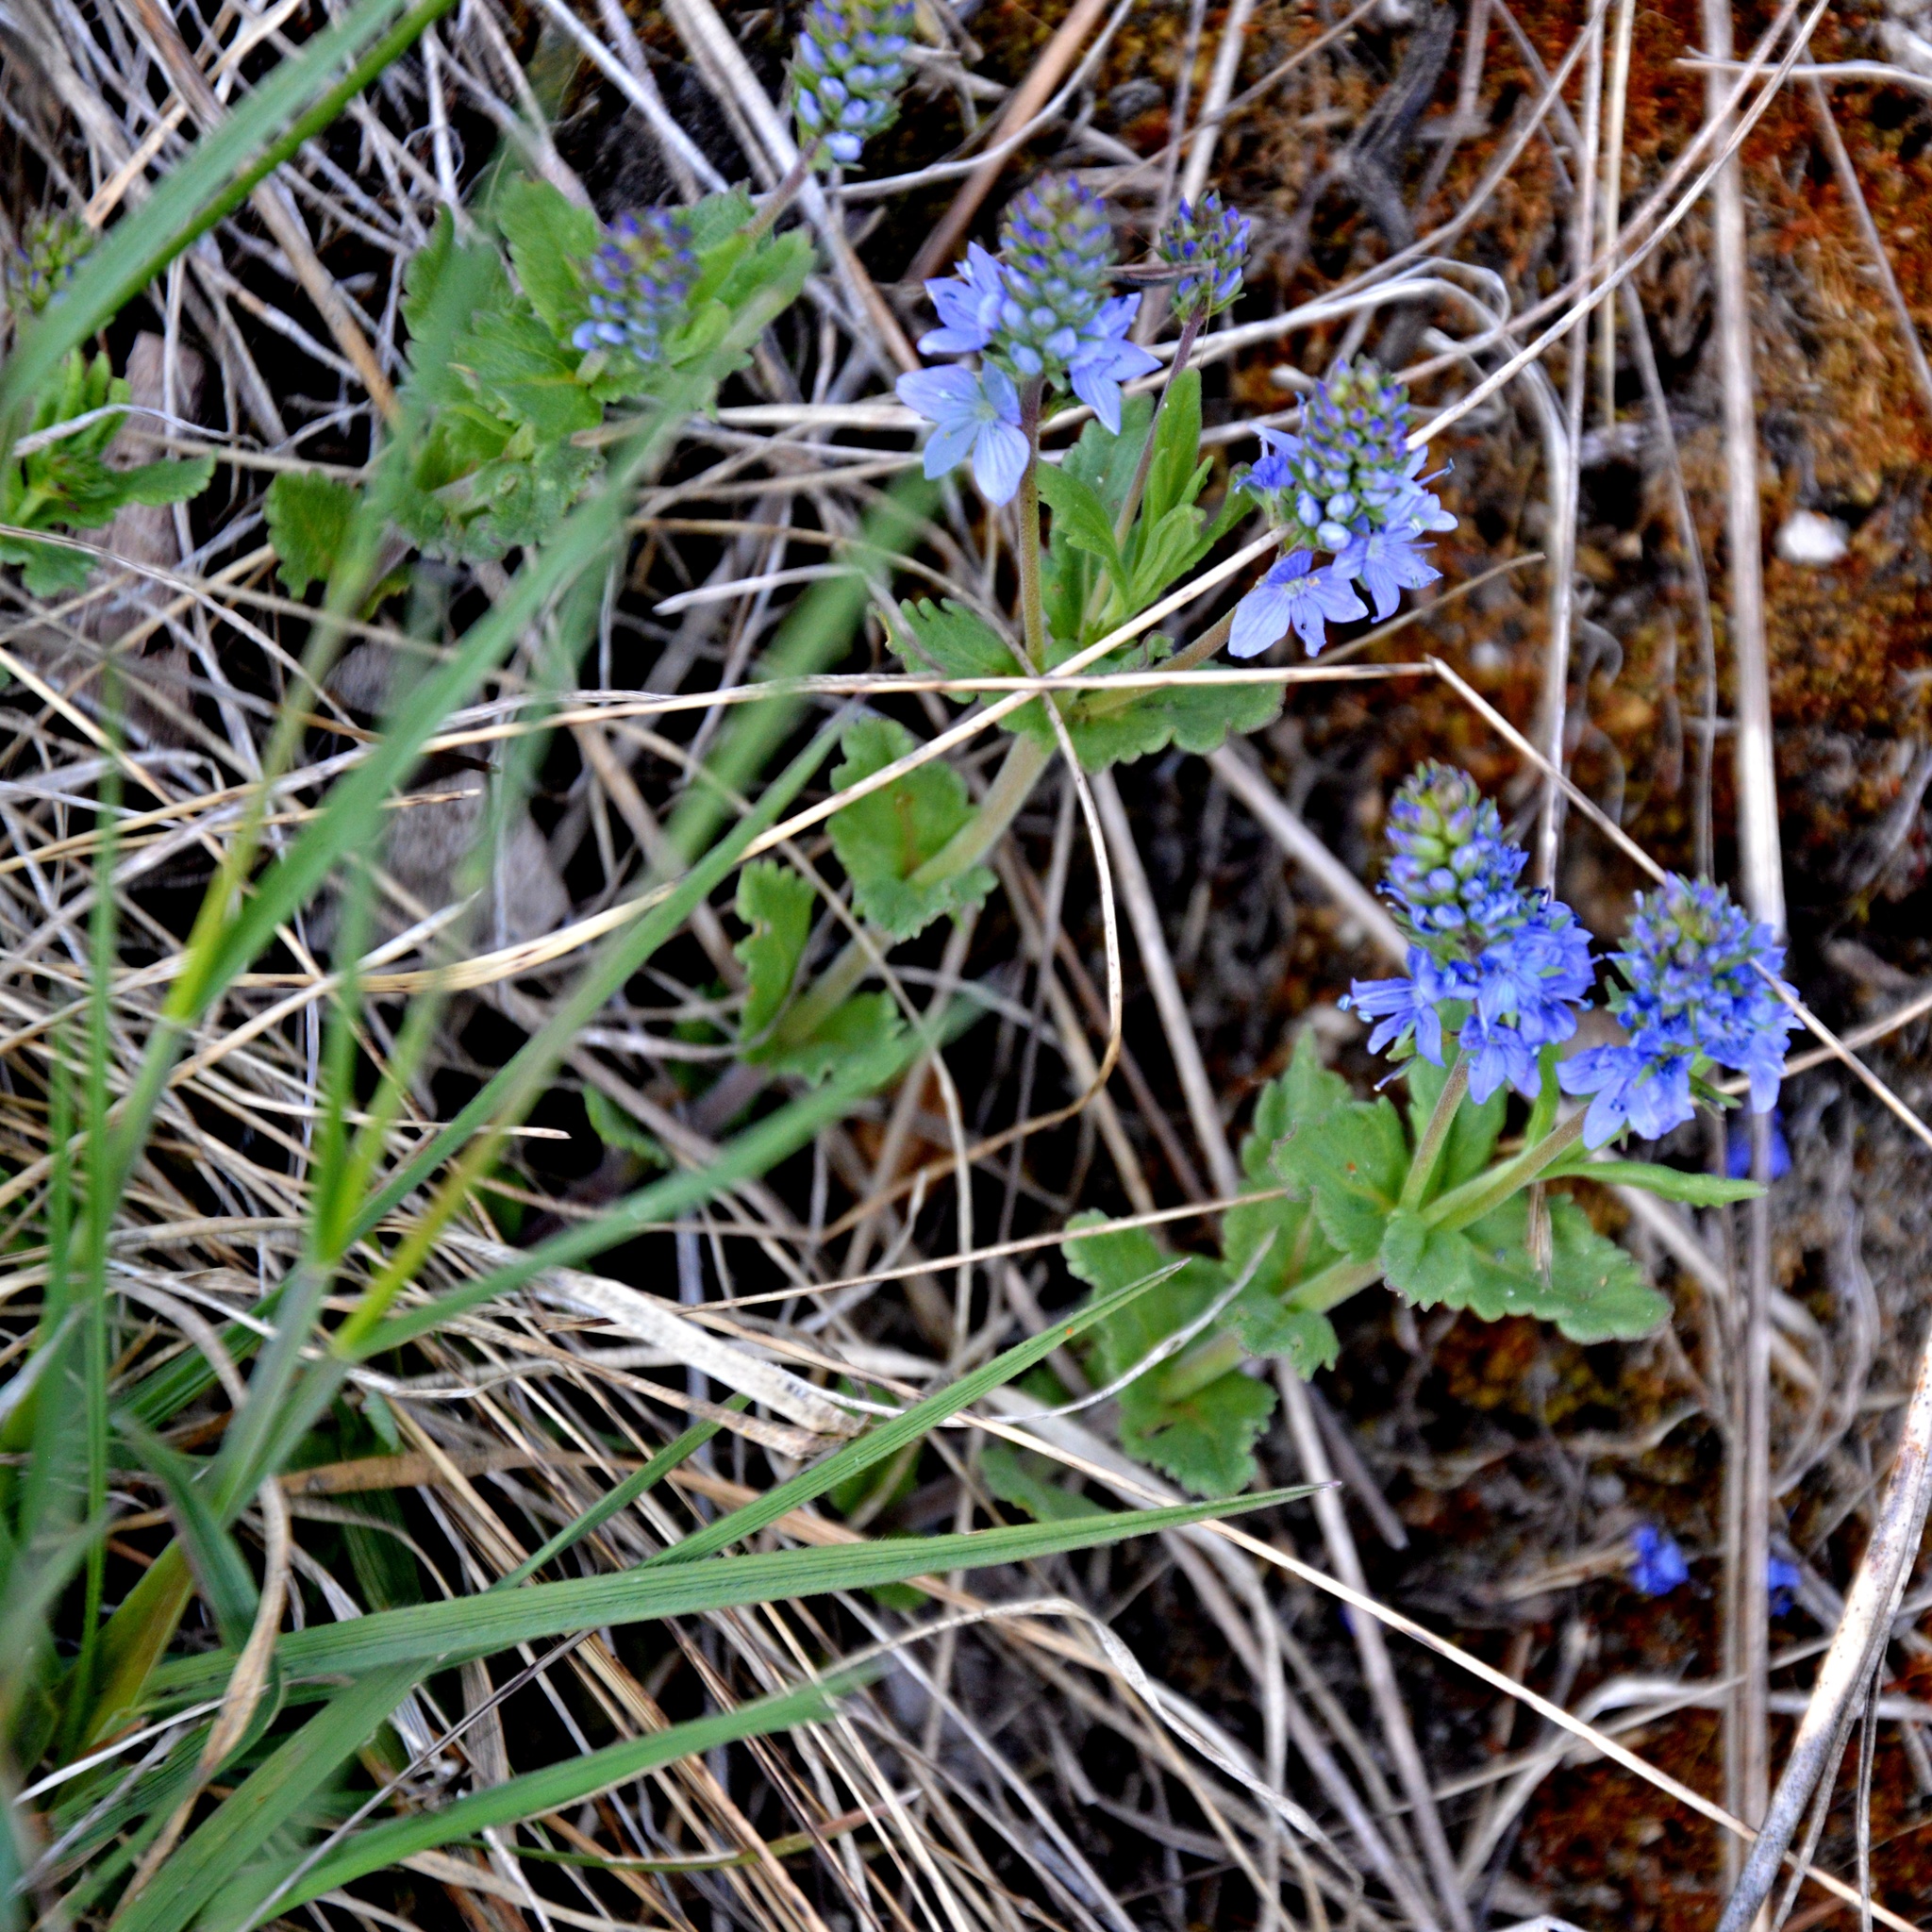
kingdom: Plantae
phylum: Tracheophyta
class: Magnoliopsida
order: Lamiales
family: Plantaginaceae
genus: Veronica
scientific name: Veronica prostrata
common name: Prostrate speedwell
